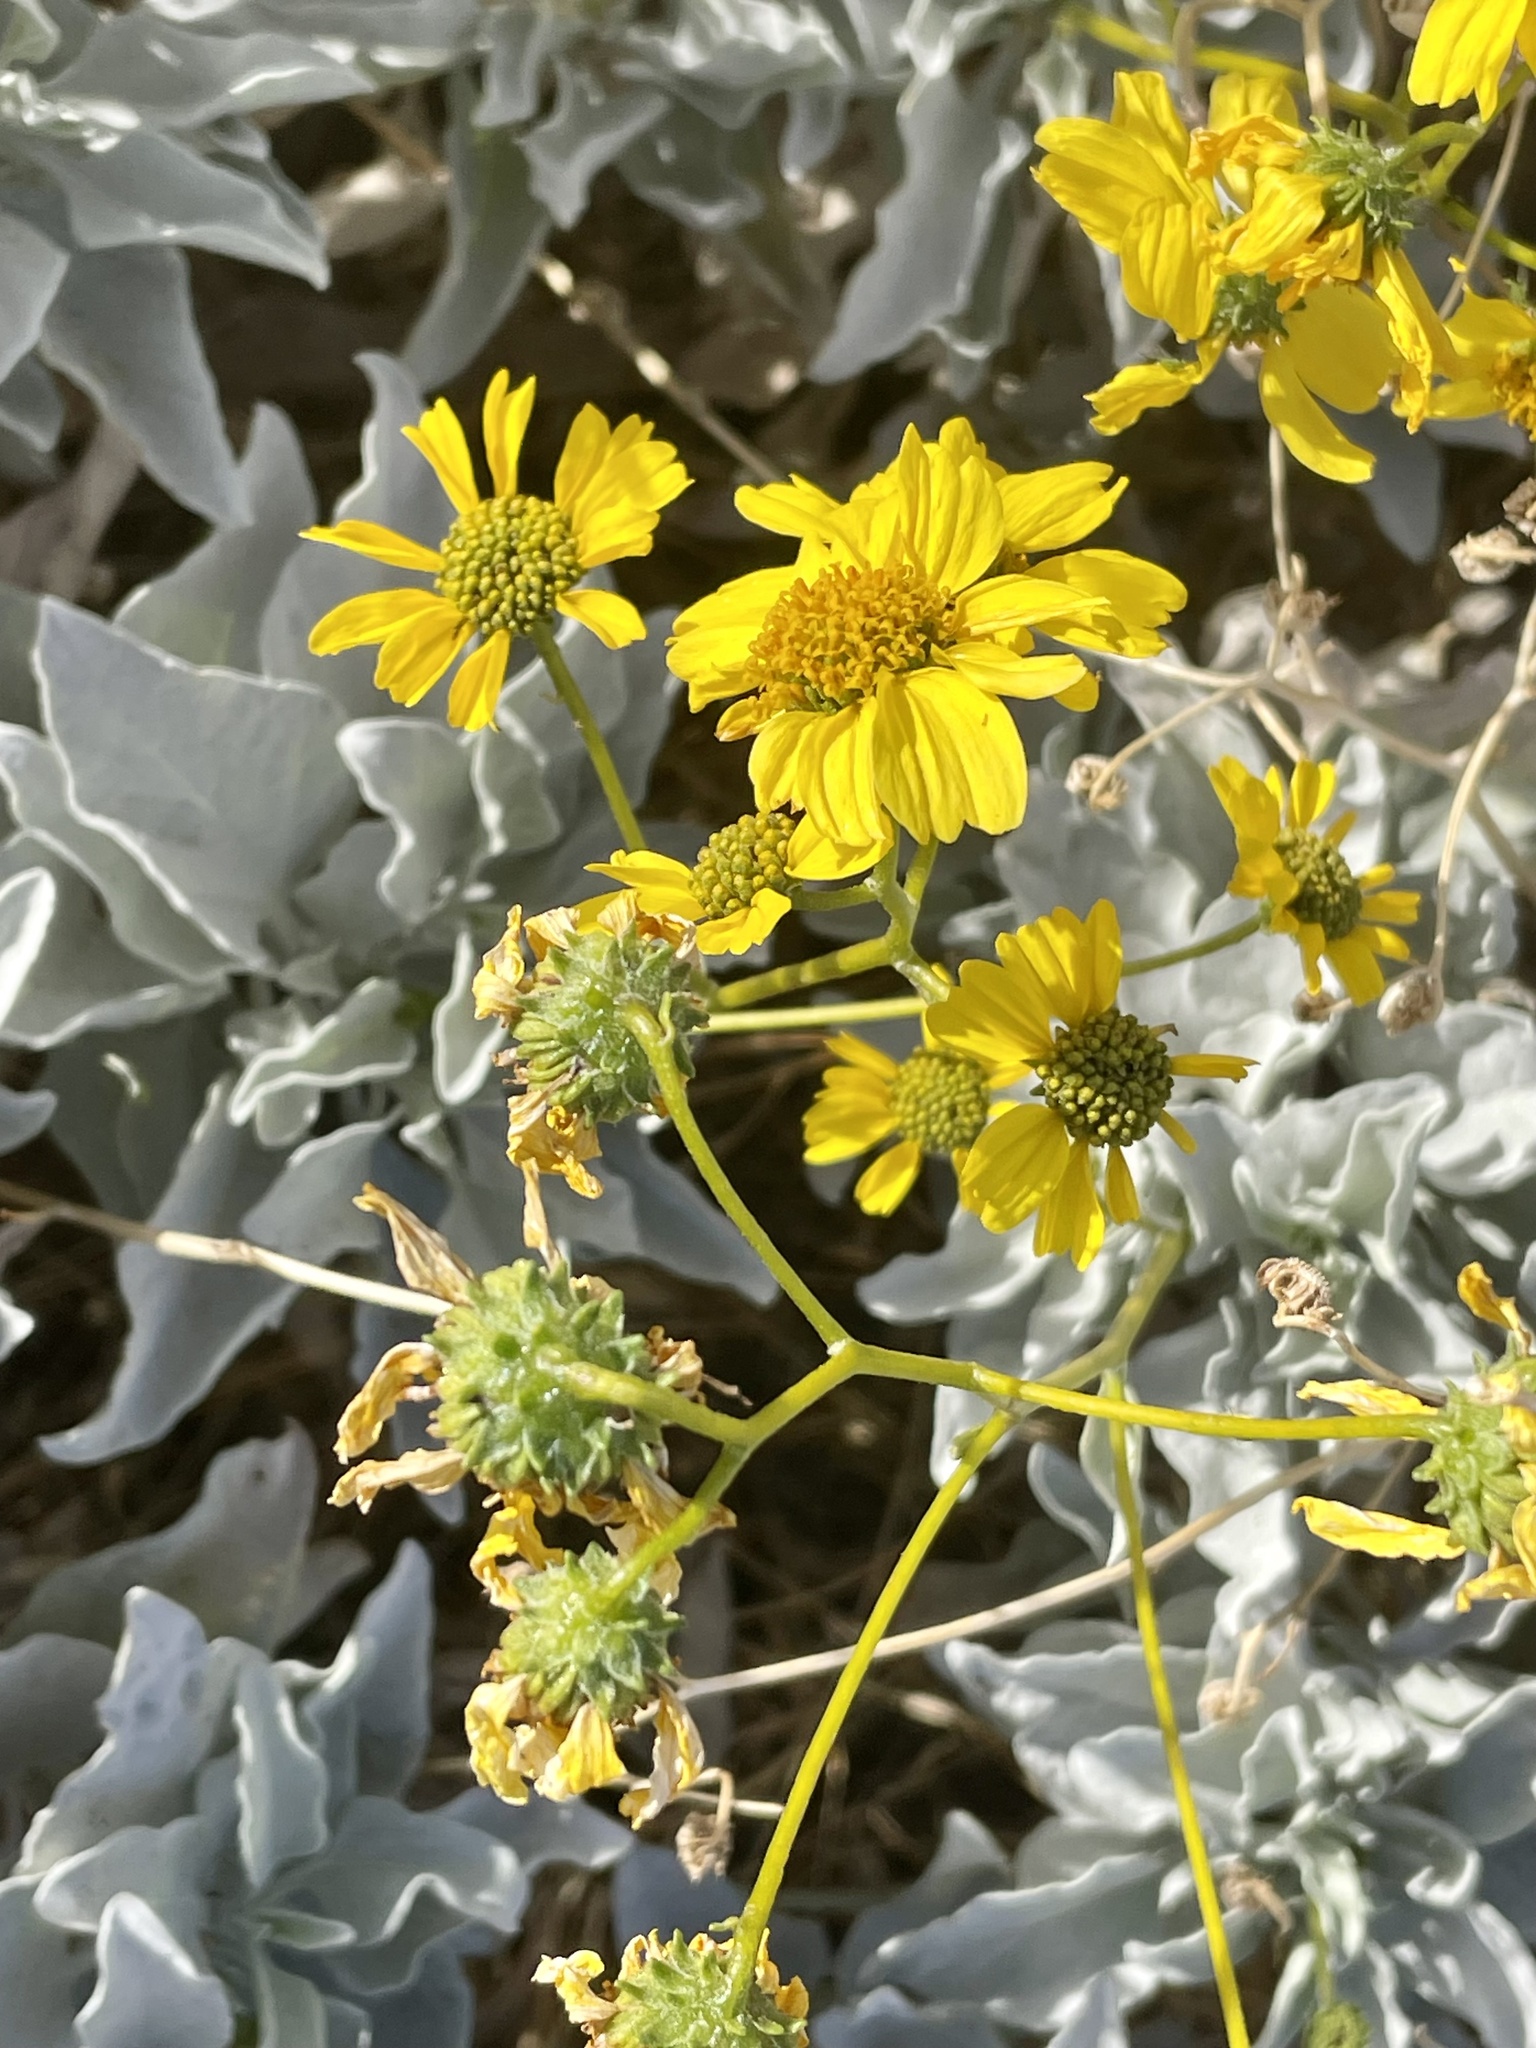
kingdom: Plantae
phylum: Tracheophyta
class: Magnoliopsida
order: Asterales
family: Asteraceae
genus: Encelia
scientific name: Encelia farinosa
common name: Brittlebush
